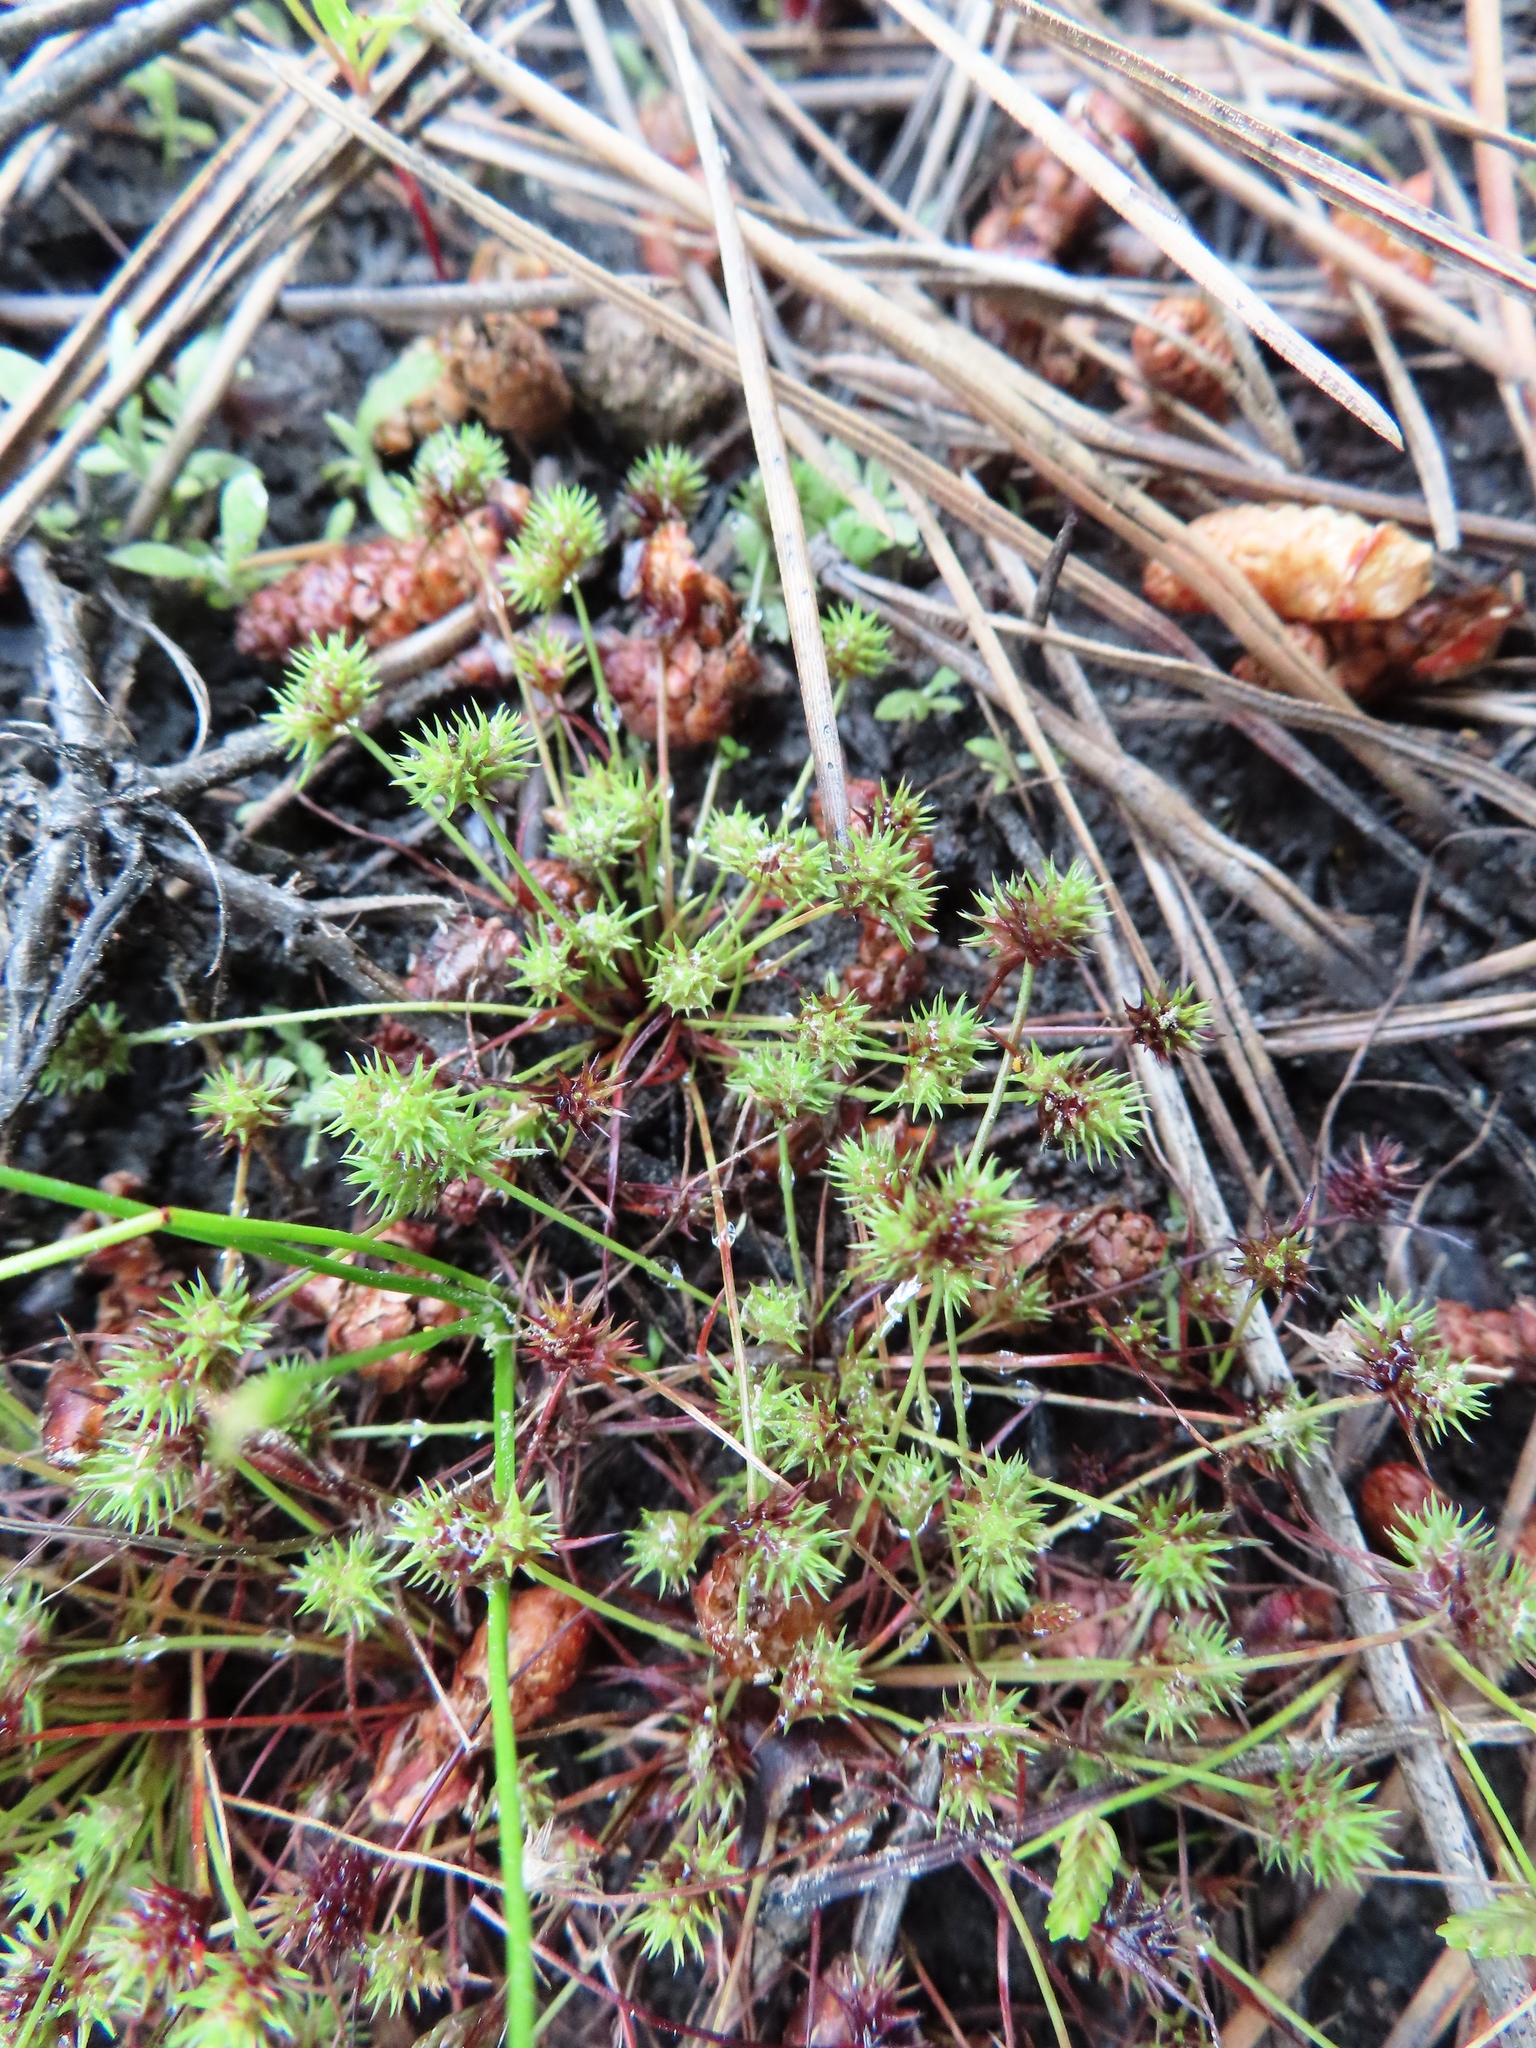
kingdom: Plantae
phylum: Tracheophyta
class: Liliopsida
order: Poales
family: Cyperaceae
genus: Isolepis
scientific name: Isolepis hystrix
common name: Bottlebrush bulrush
